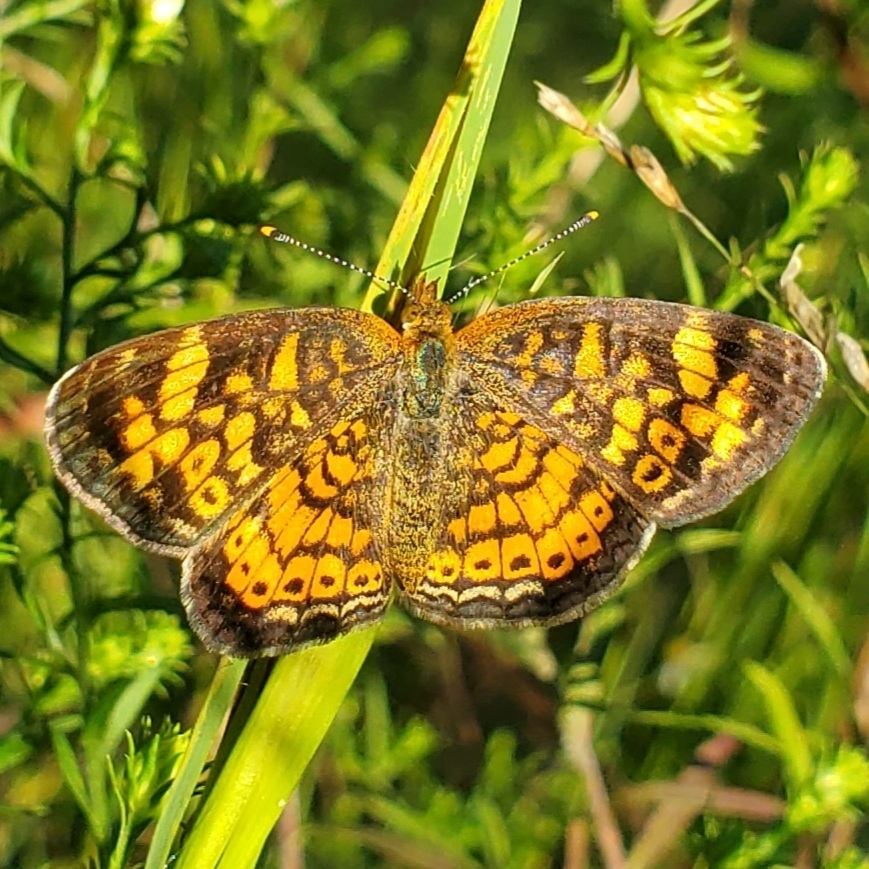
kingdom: Animalia
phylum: Arthropoda
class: Insecta
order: Lepidoptera
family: Nymphalidae
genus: Phyciodes
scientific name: Phyciodes tharos
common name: Pearl crescent
